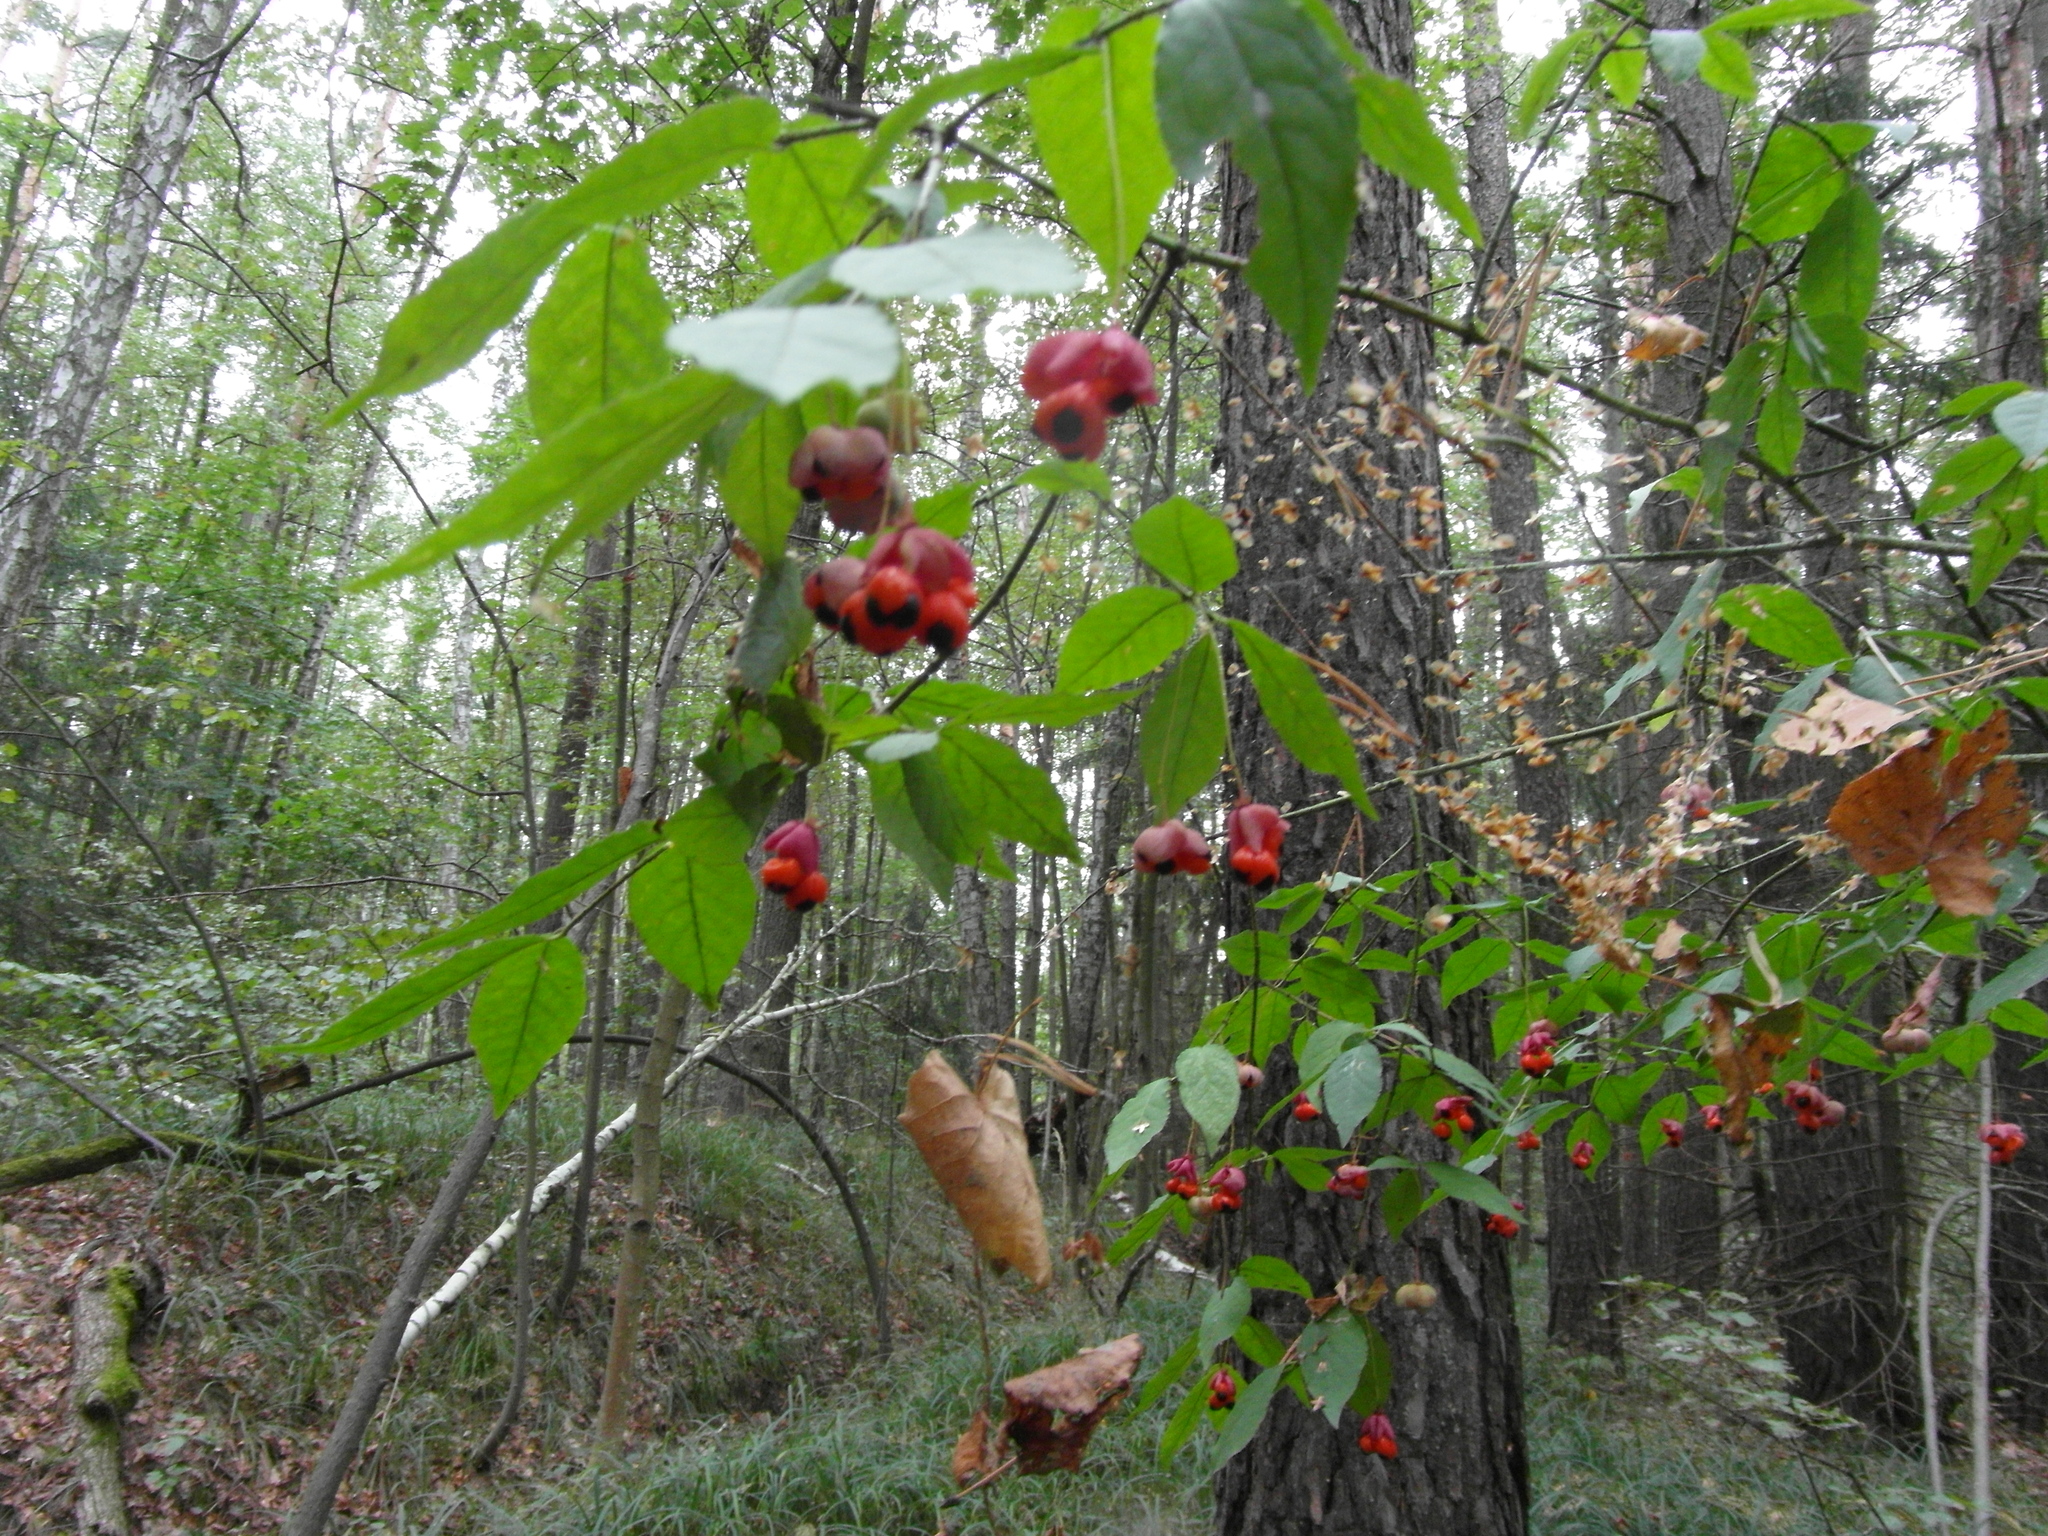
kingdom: Plantae
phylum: Tracheophyta
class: Magnoliopsida
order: Celastrales
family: Celastraceae
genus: Euonymus
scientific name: Euonymus verrucosus
